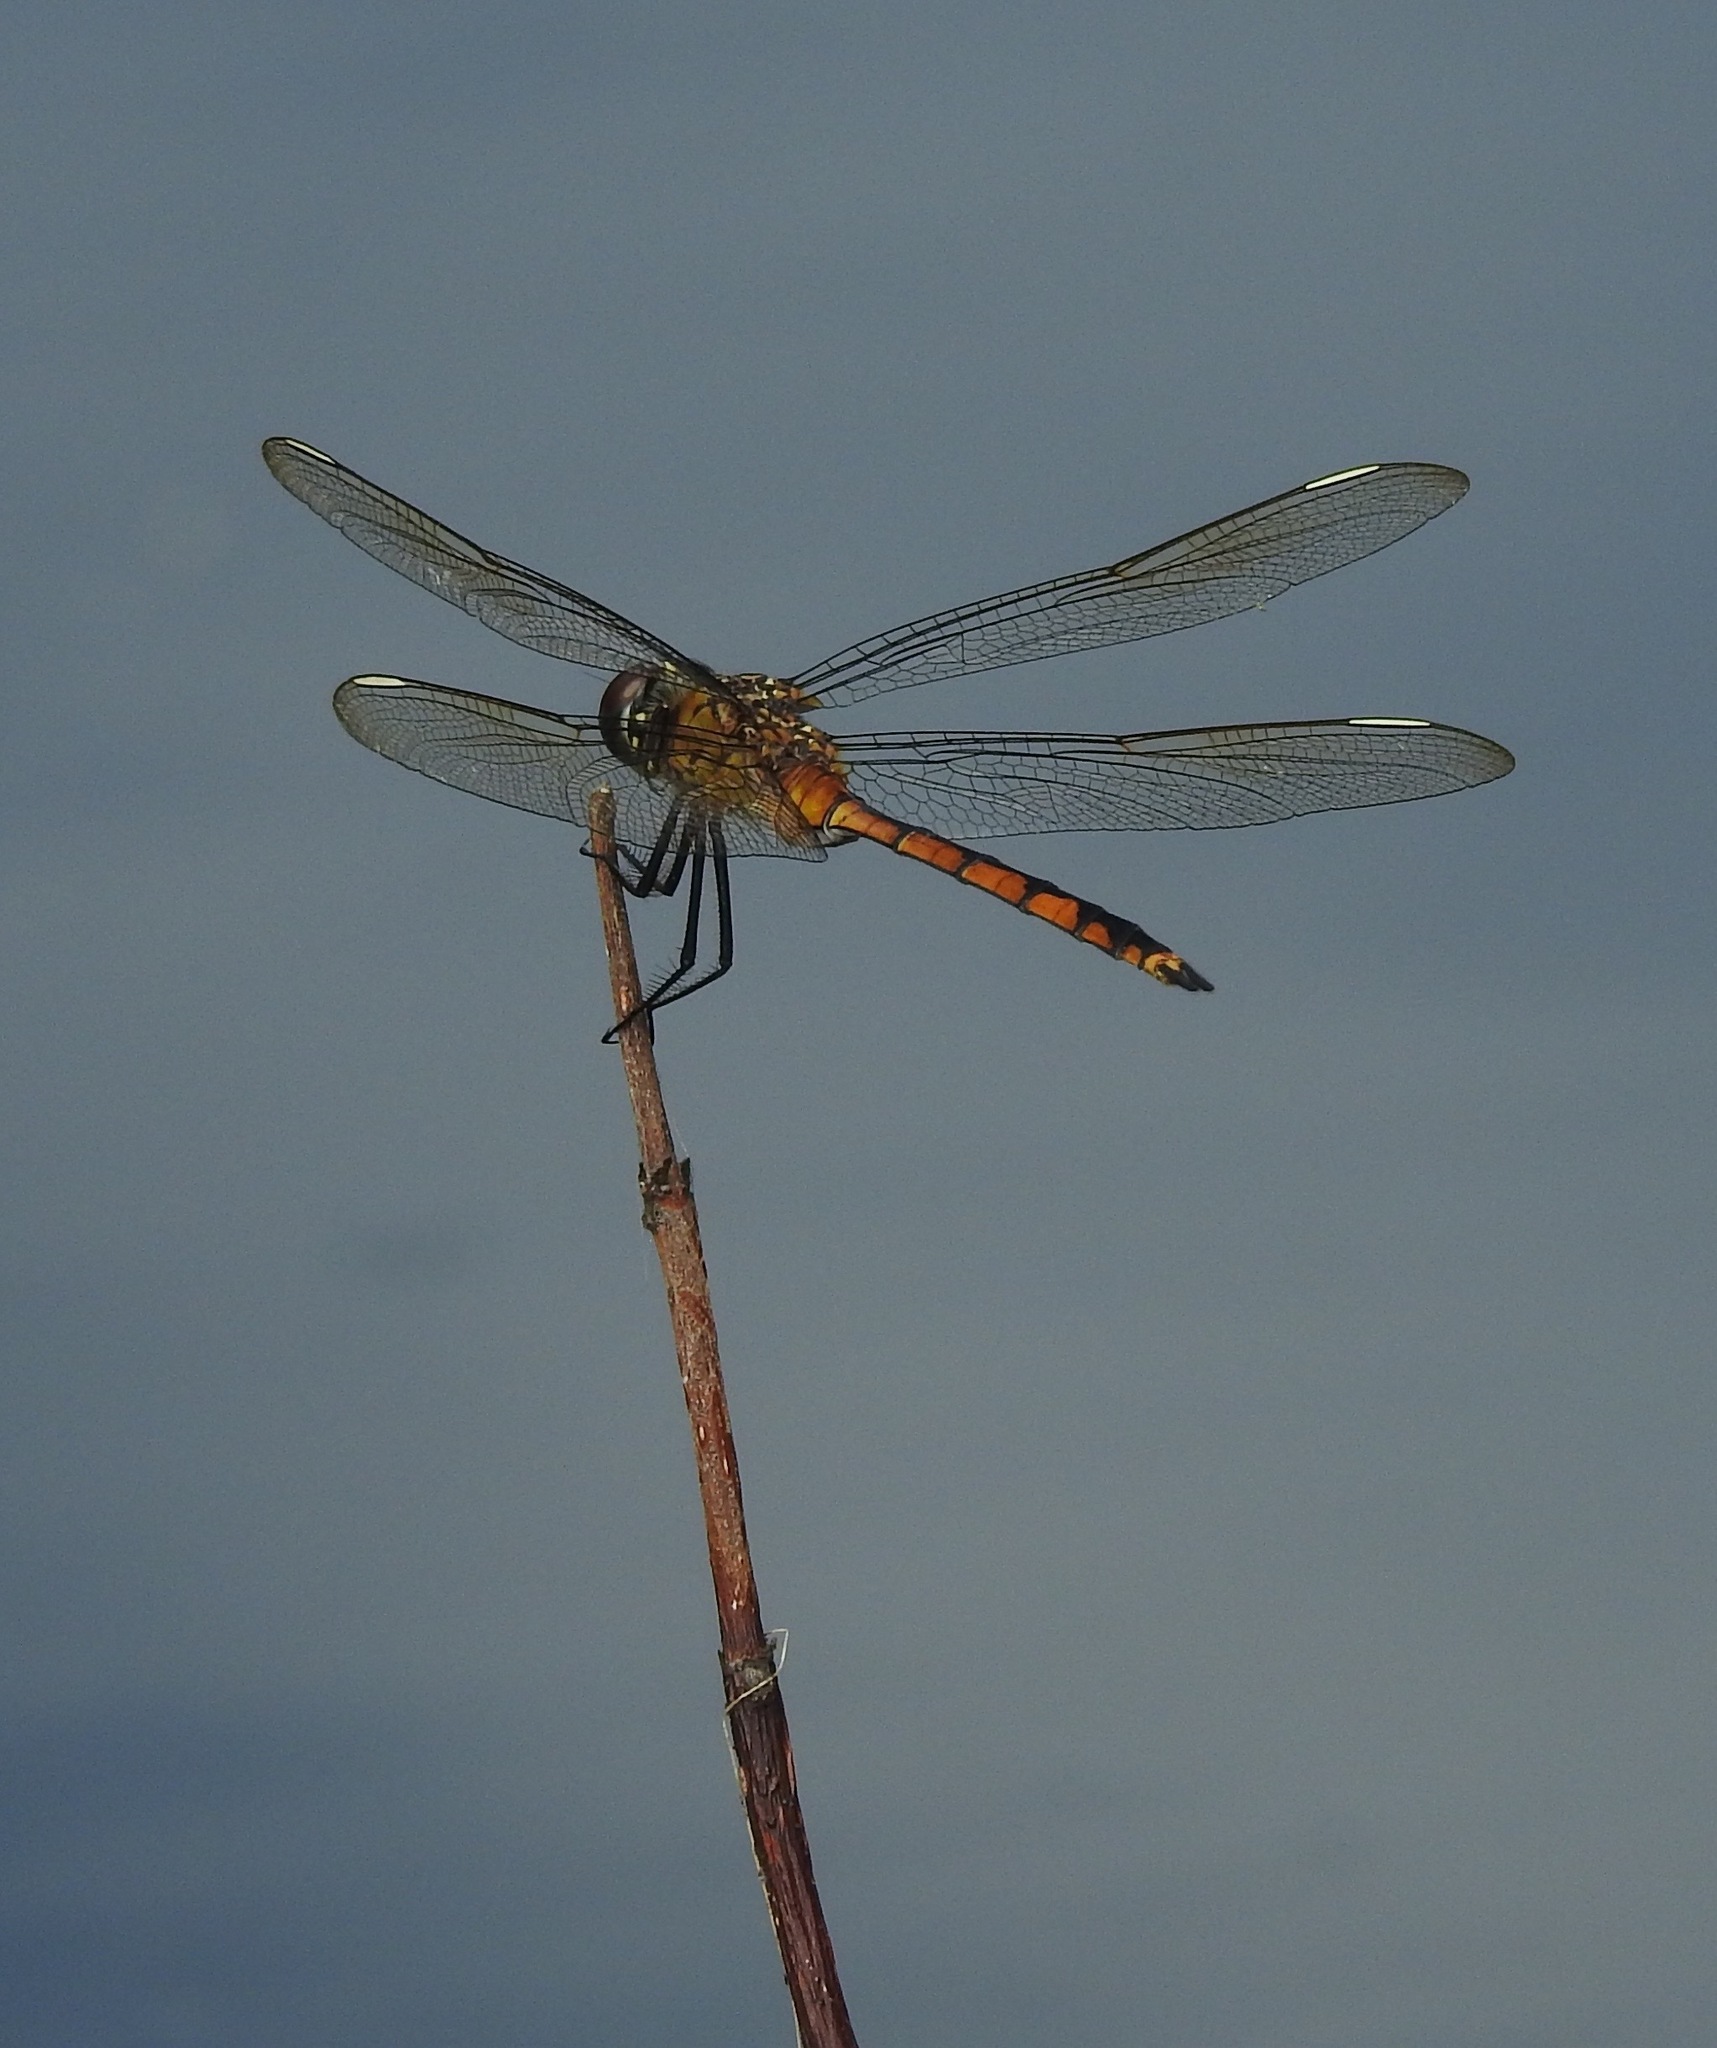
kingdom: Animalia
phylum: Arthropoda
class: Insecta
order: Odonata
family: Libellulidae
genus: Brachymesia
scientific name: Brachymesia gravida
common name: Four-spotted pennant
